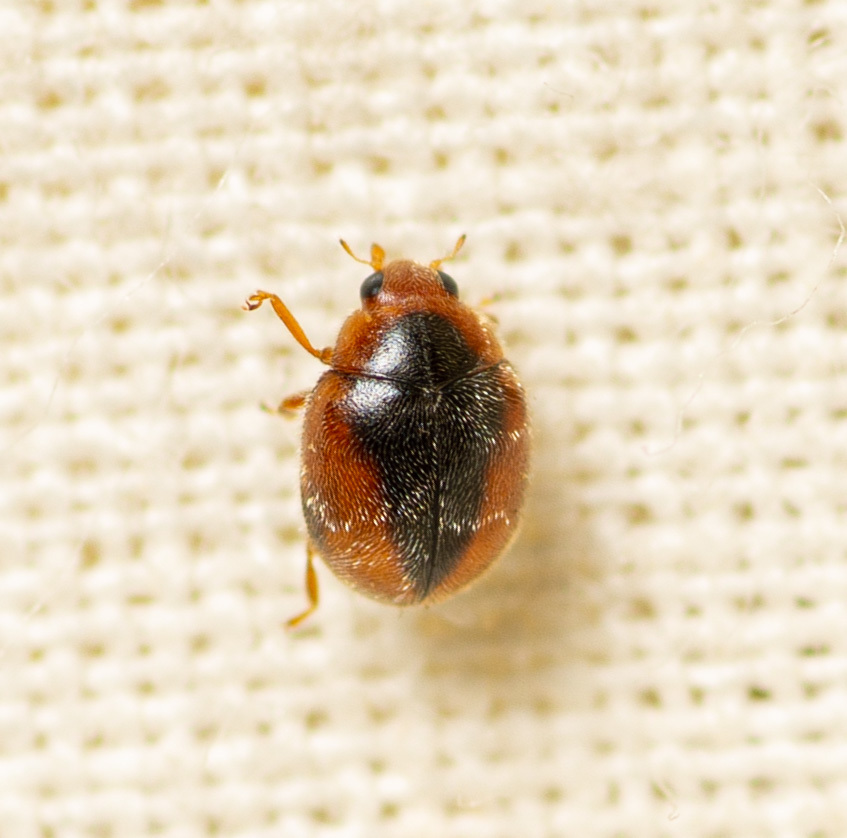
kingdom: Animalia
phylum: Arthropoda
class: Insecta
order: Coleoptera
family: Coccinellidae
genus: Scymnus
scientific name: Scymnus loewii
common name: Dusky lady beetle
